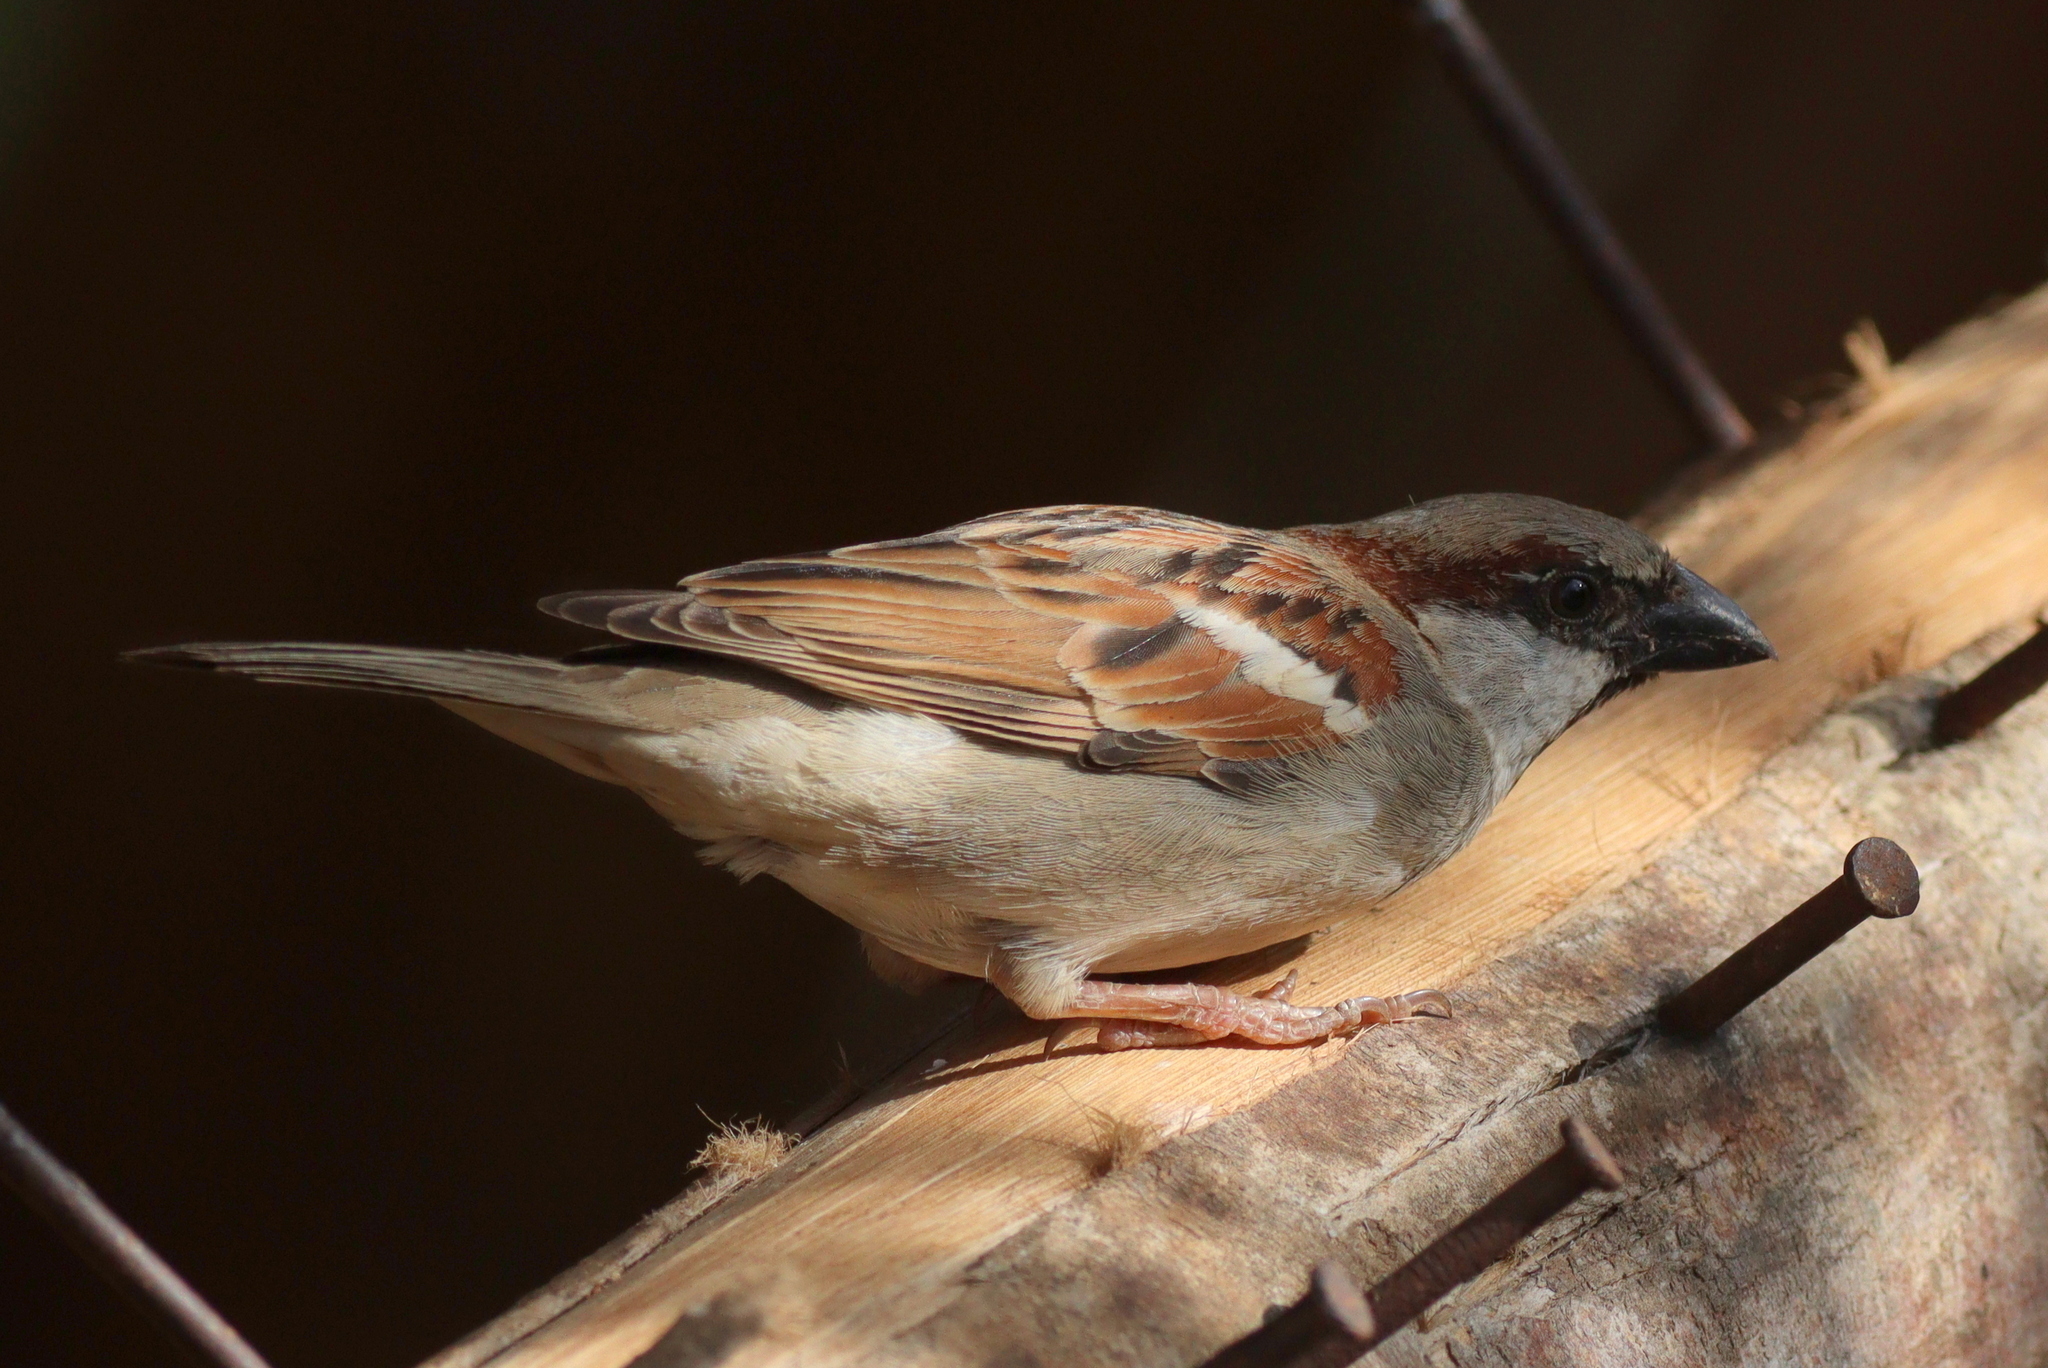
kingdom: Animalia
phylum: Chordata
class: Aves
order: Passeriformes
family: Passeridae
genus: Passer
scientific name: Passer domesticus
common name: House sparrow
